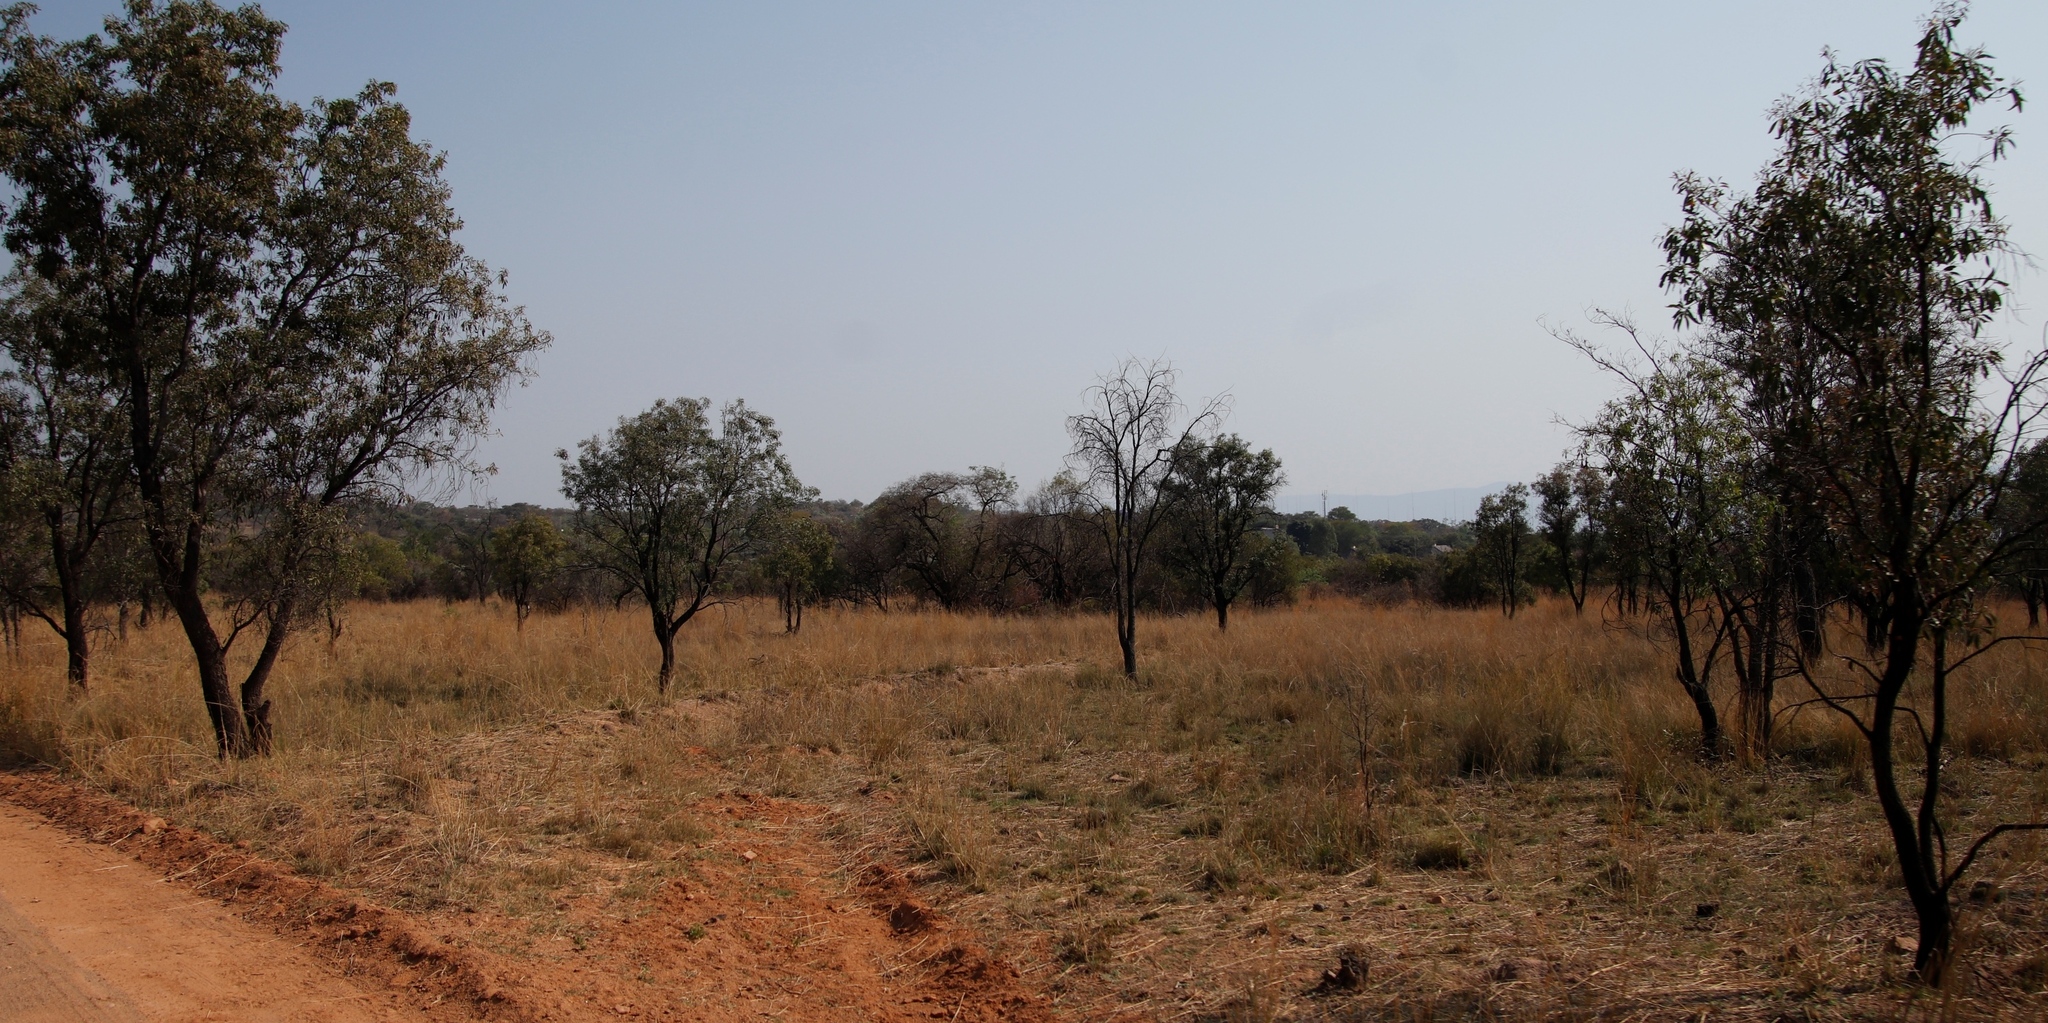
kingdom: Plantae
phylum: Tracheophyta
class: Magnoliopsida
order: Proteales
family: Proteaceae
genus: Faurea
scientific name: Faurea saligna
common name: African bean
